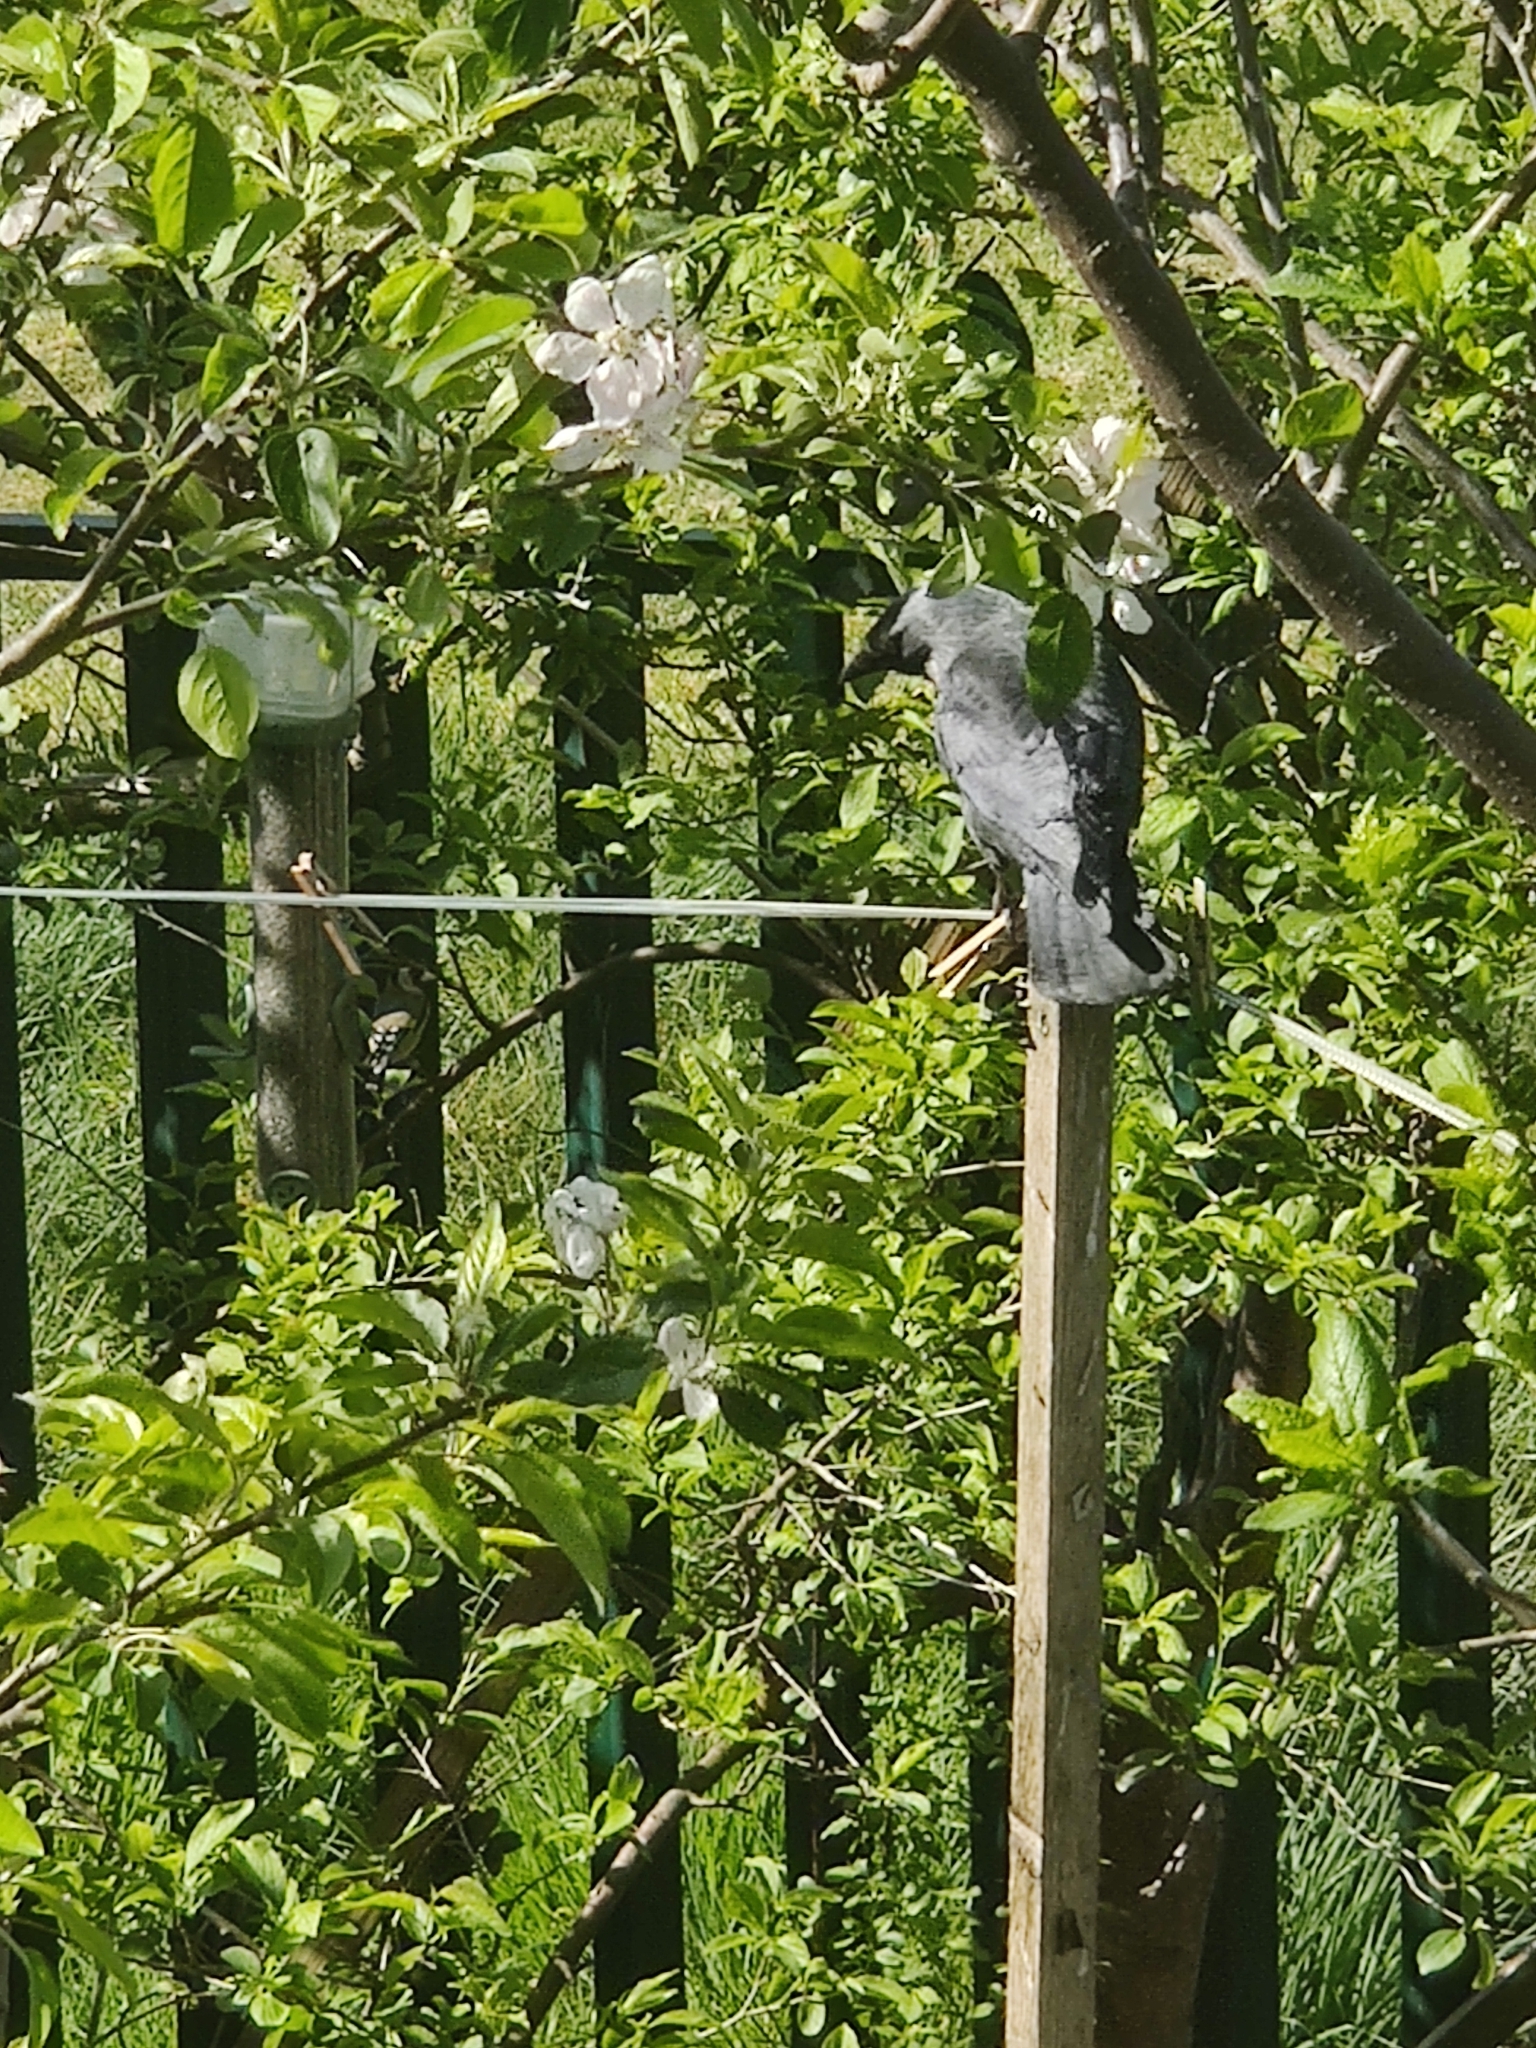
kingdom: Animalia
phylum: Chordata
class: Aves
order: Passeriformes
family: Corvidae
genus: Coloeus
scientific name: Coloeus monedula
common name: Western jackdaw
